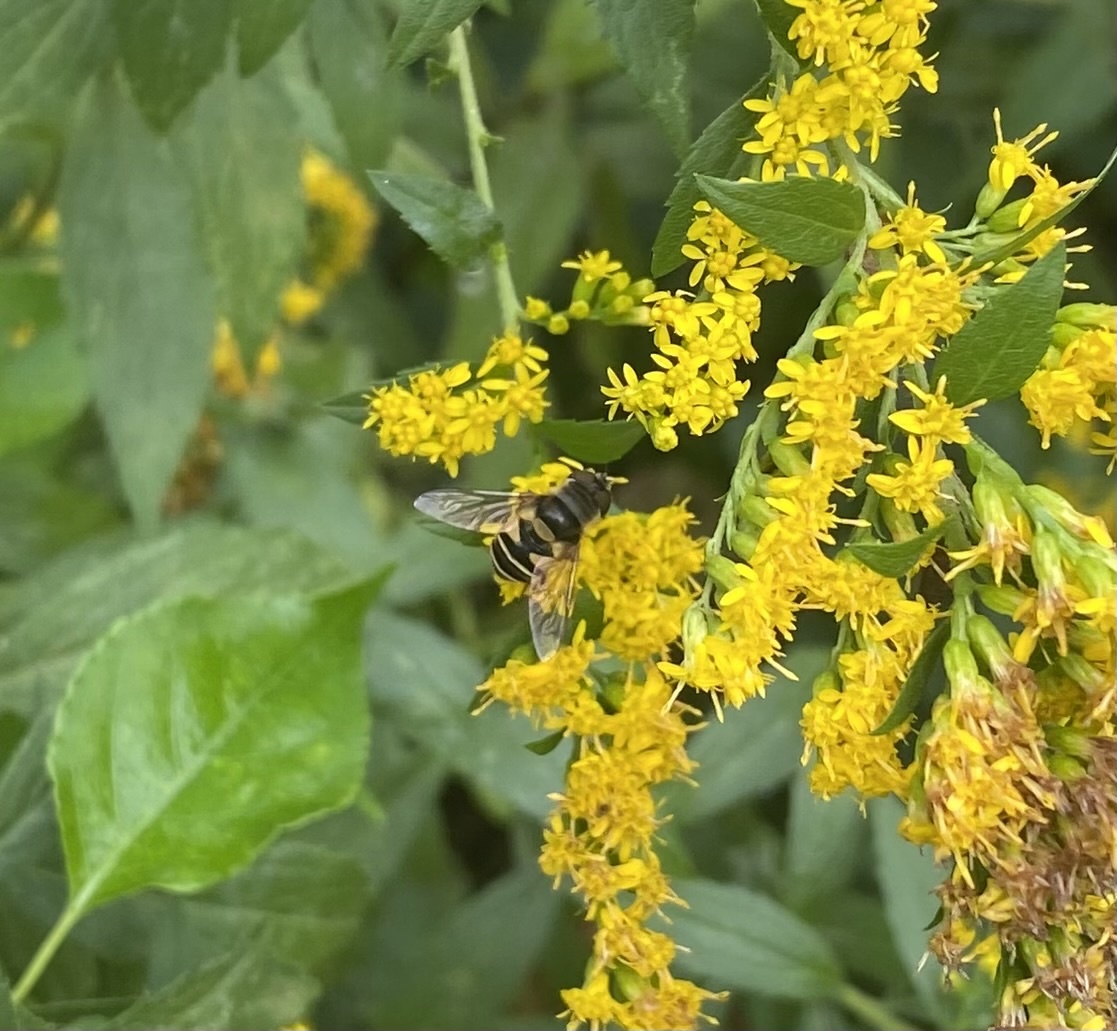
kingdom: Animalia
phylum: Arthropoda
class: Insecta
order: Diptera
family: Syrphidae
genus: Eristalis
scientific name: Eristalis transversa
